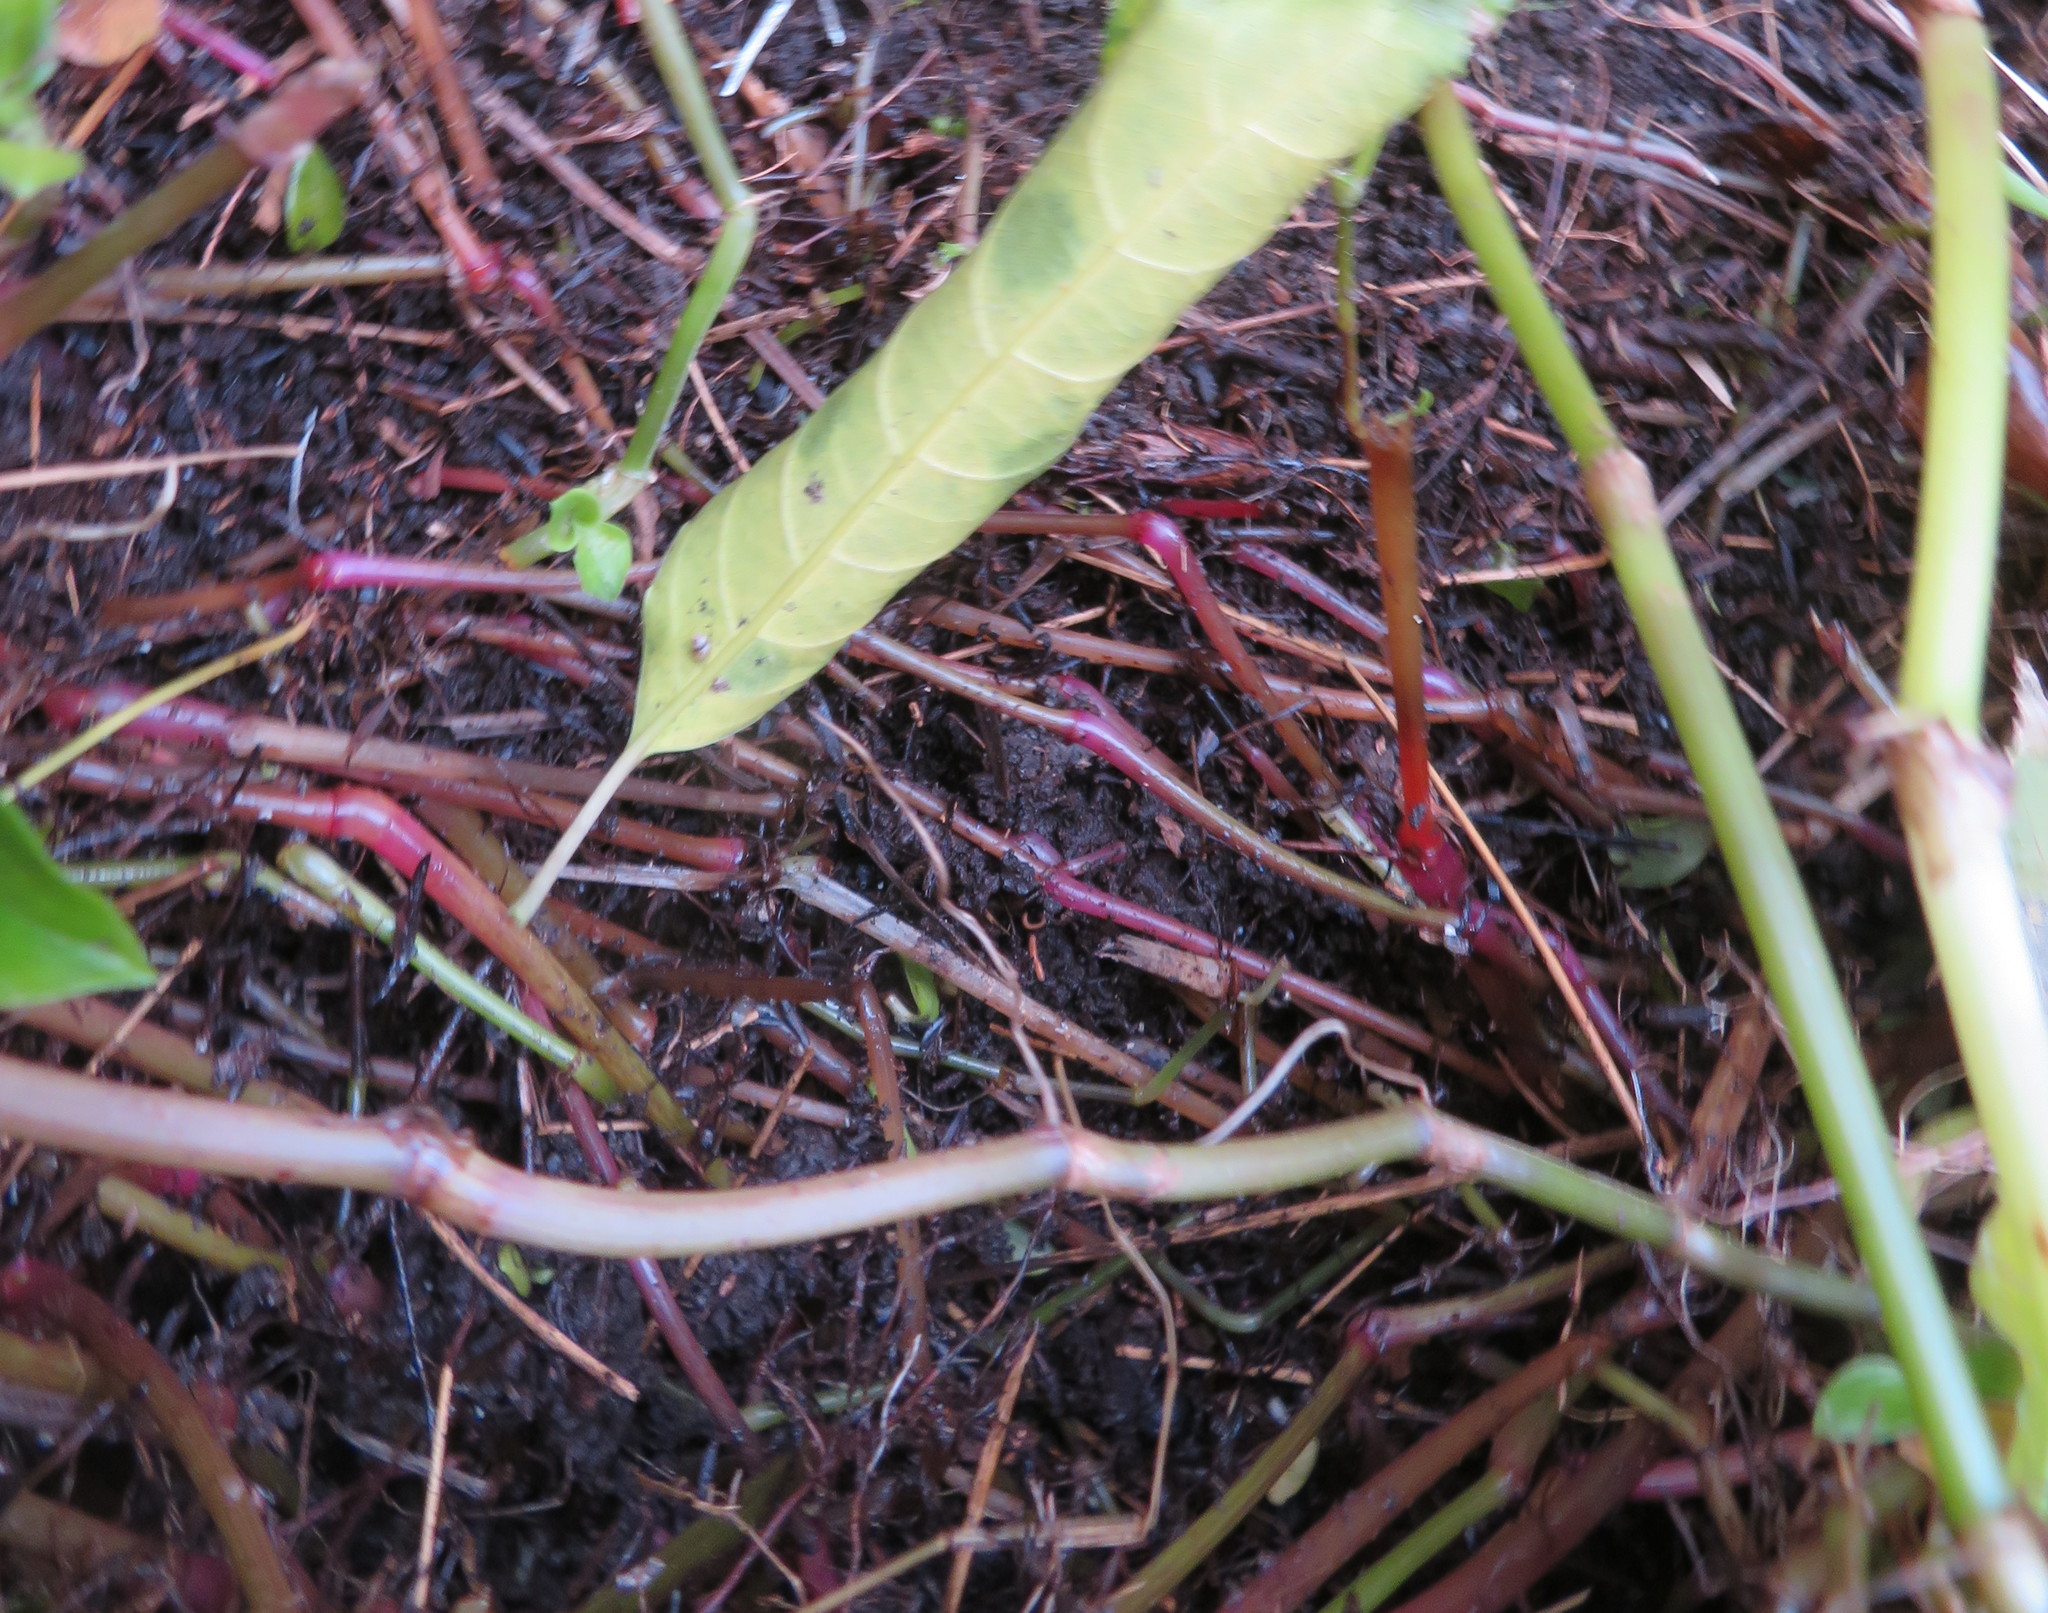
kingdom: Plantae
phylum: Tracheophyta
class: Liliopsida
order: Commelinales
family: Commelinaceae
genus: Tradescantia
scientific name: Tradescantia fluminensis
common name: Wandering-jew
